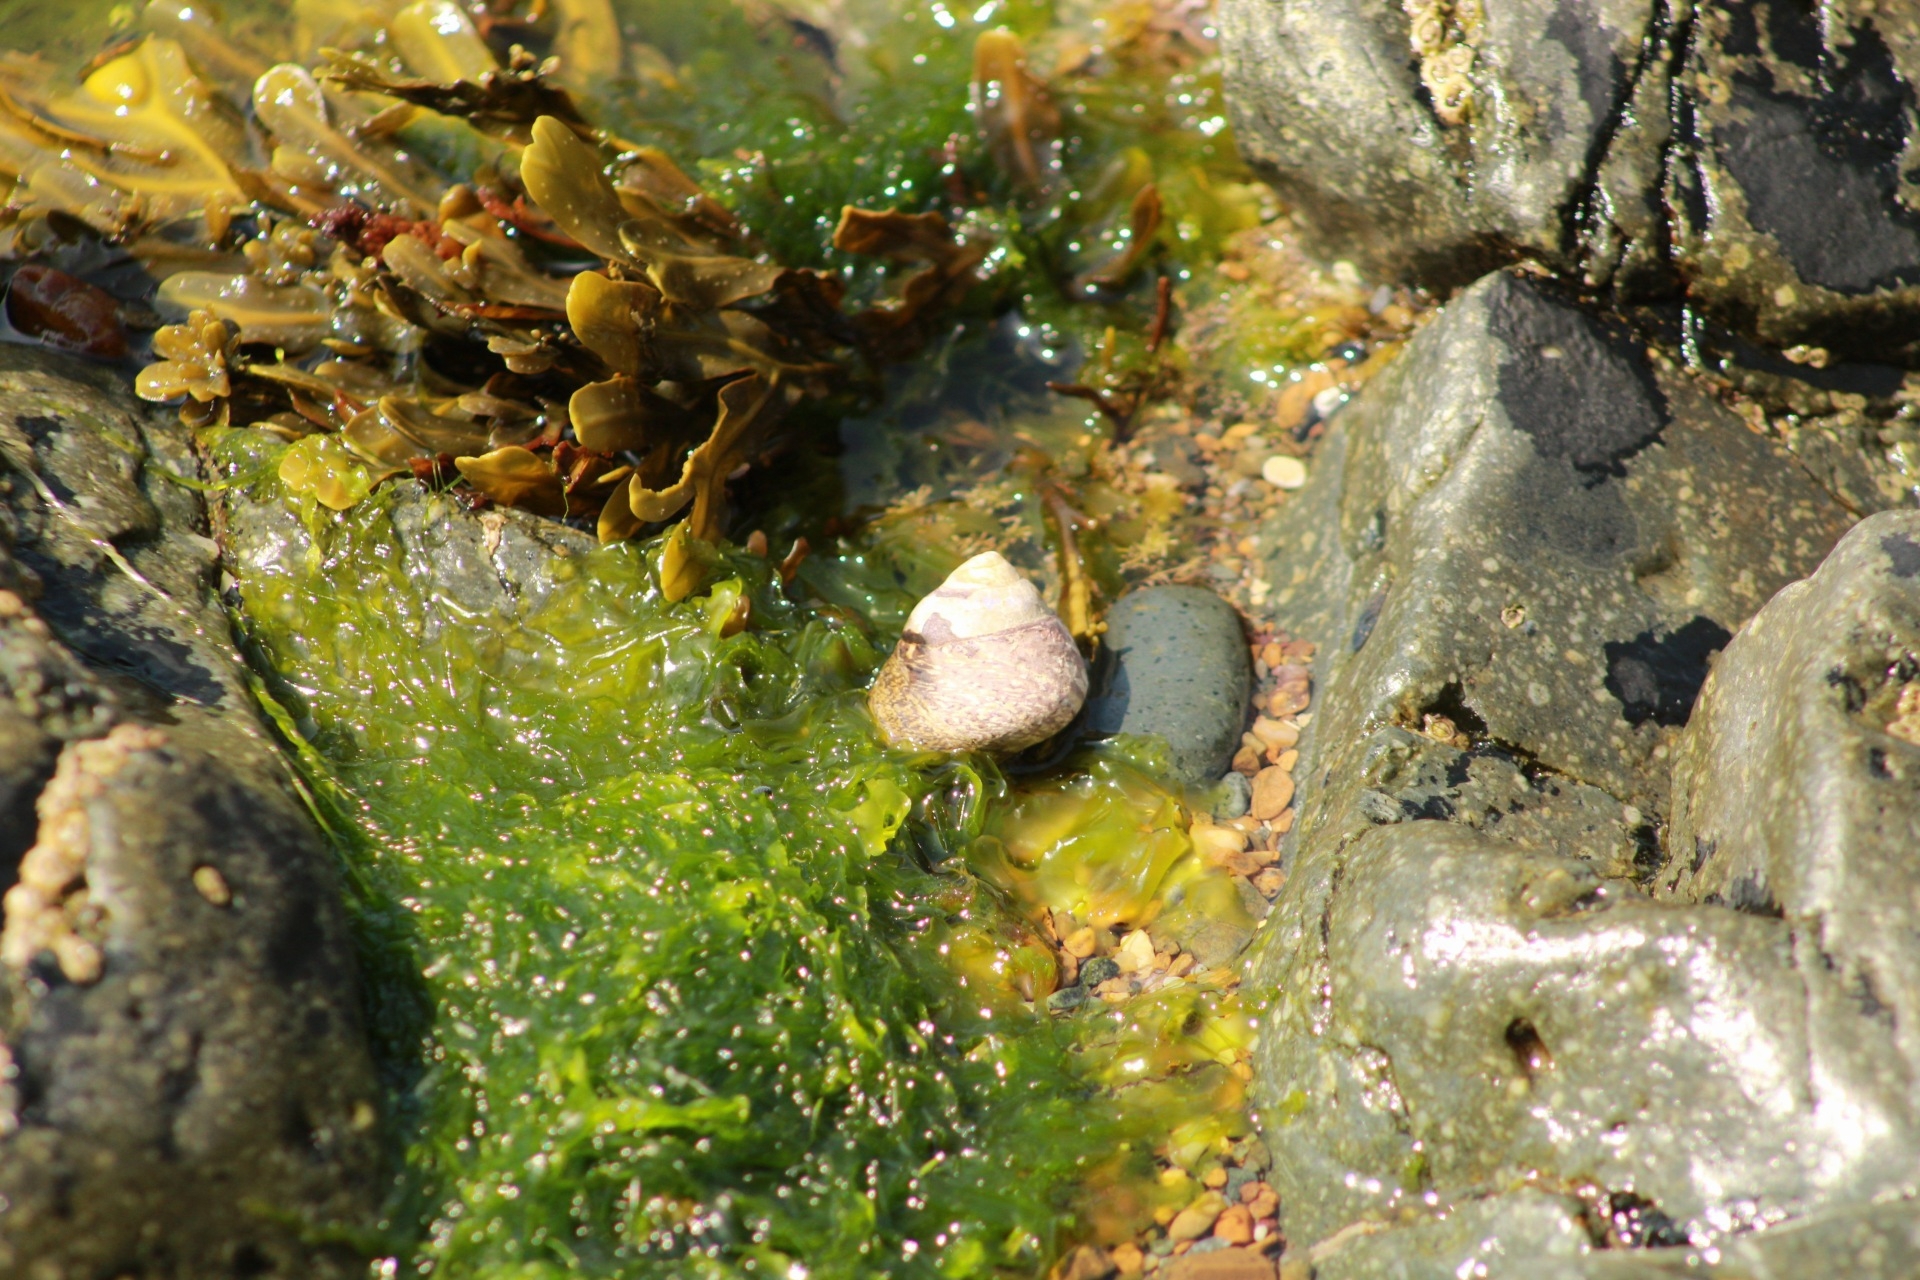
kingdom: Animalia
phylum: Mollusca
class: Gastropoda
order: Trochida
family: Trochidae
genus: Phorcus
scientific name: Phorcus lineatus
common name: Toothed top shell
